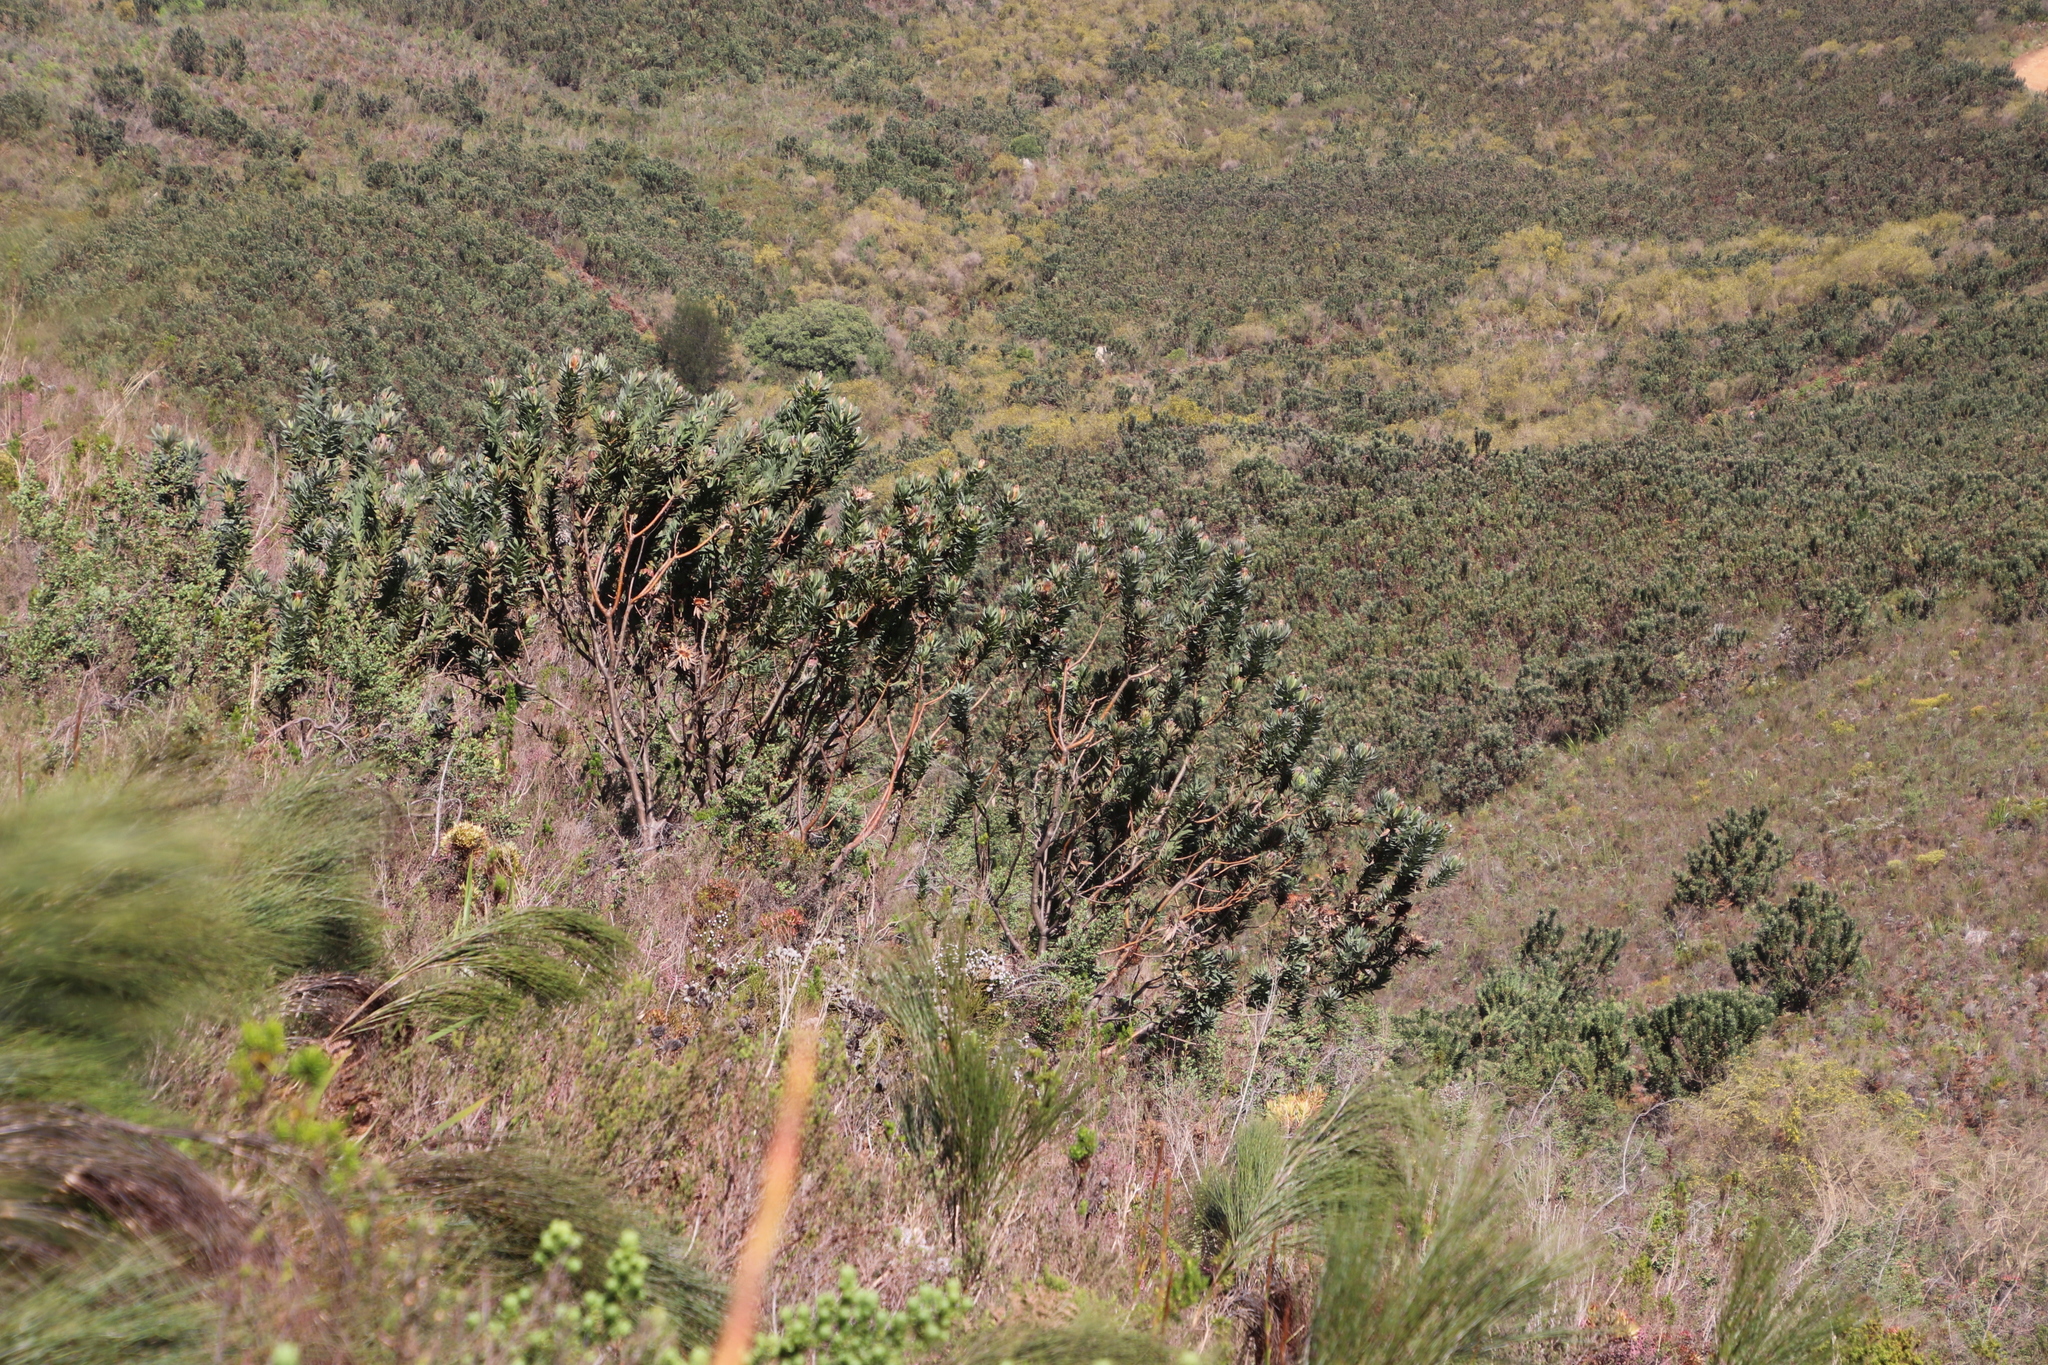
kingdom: Plantae
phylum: Tracheophyta
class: Magnoliopsida
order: Proteales
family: Proteaceae
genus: Protea
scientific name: Protea coronata
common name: Green sugarbush
